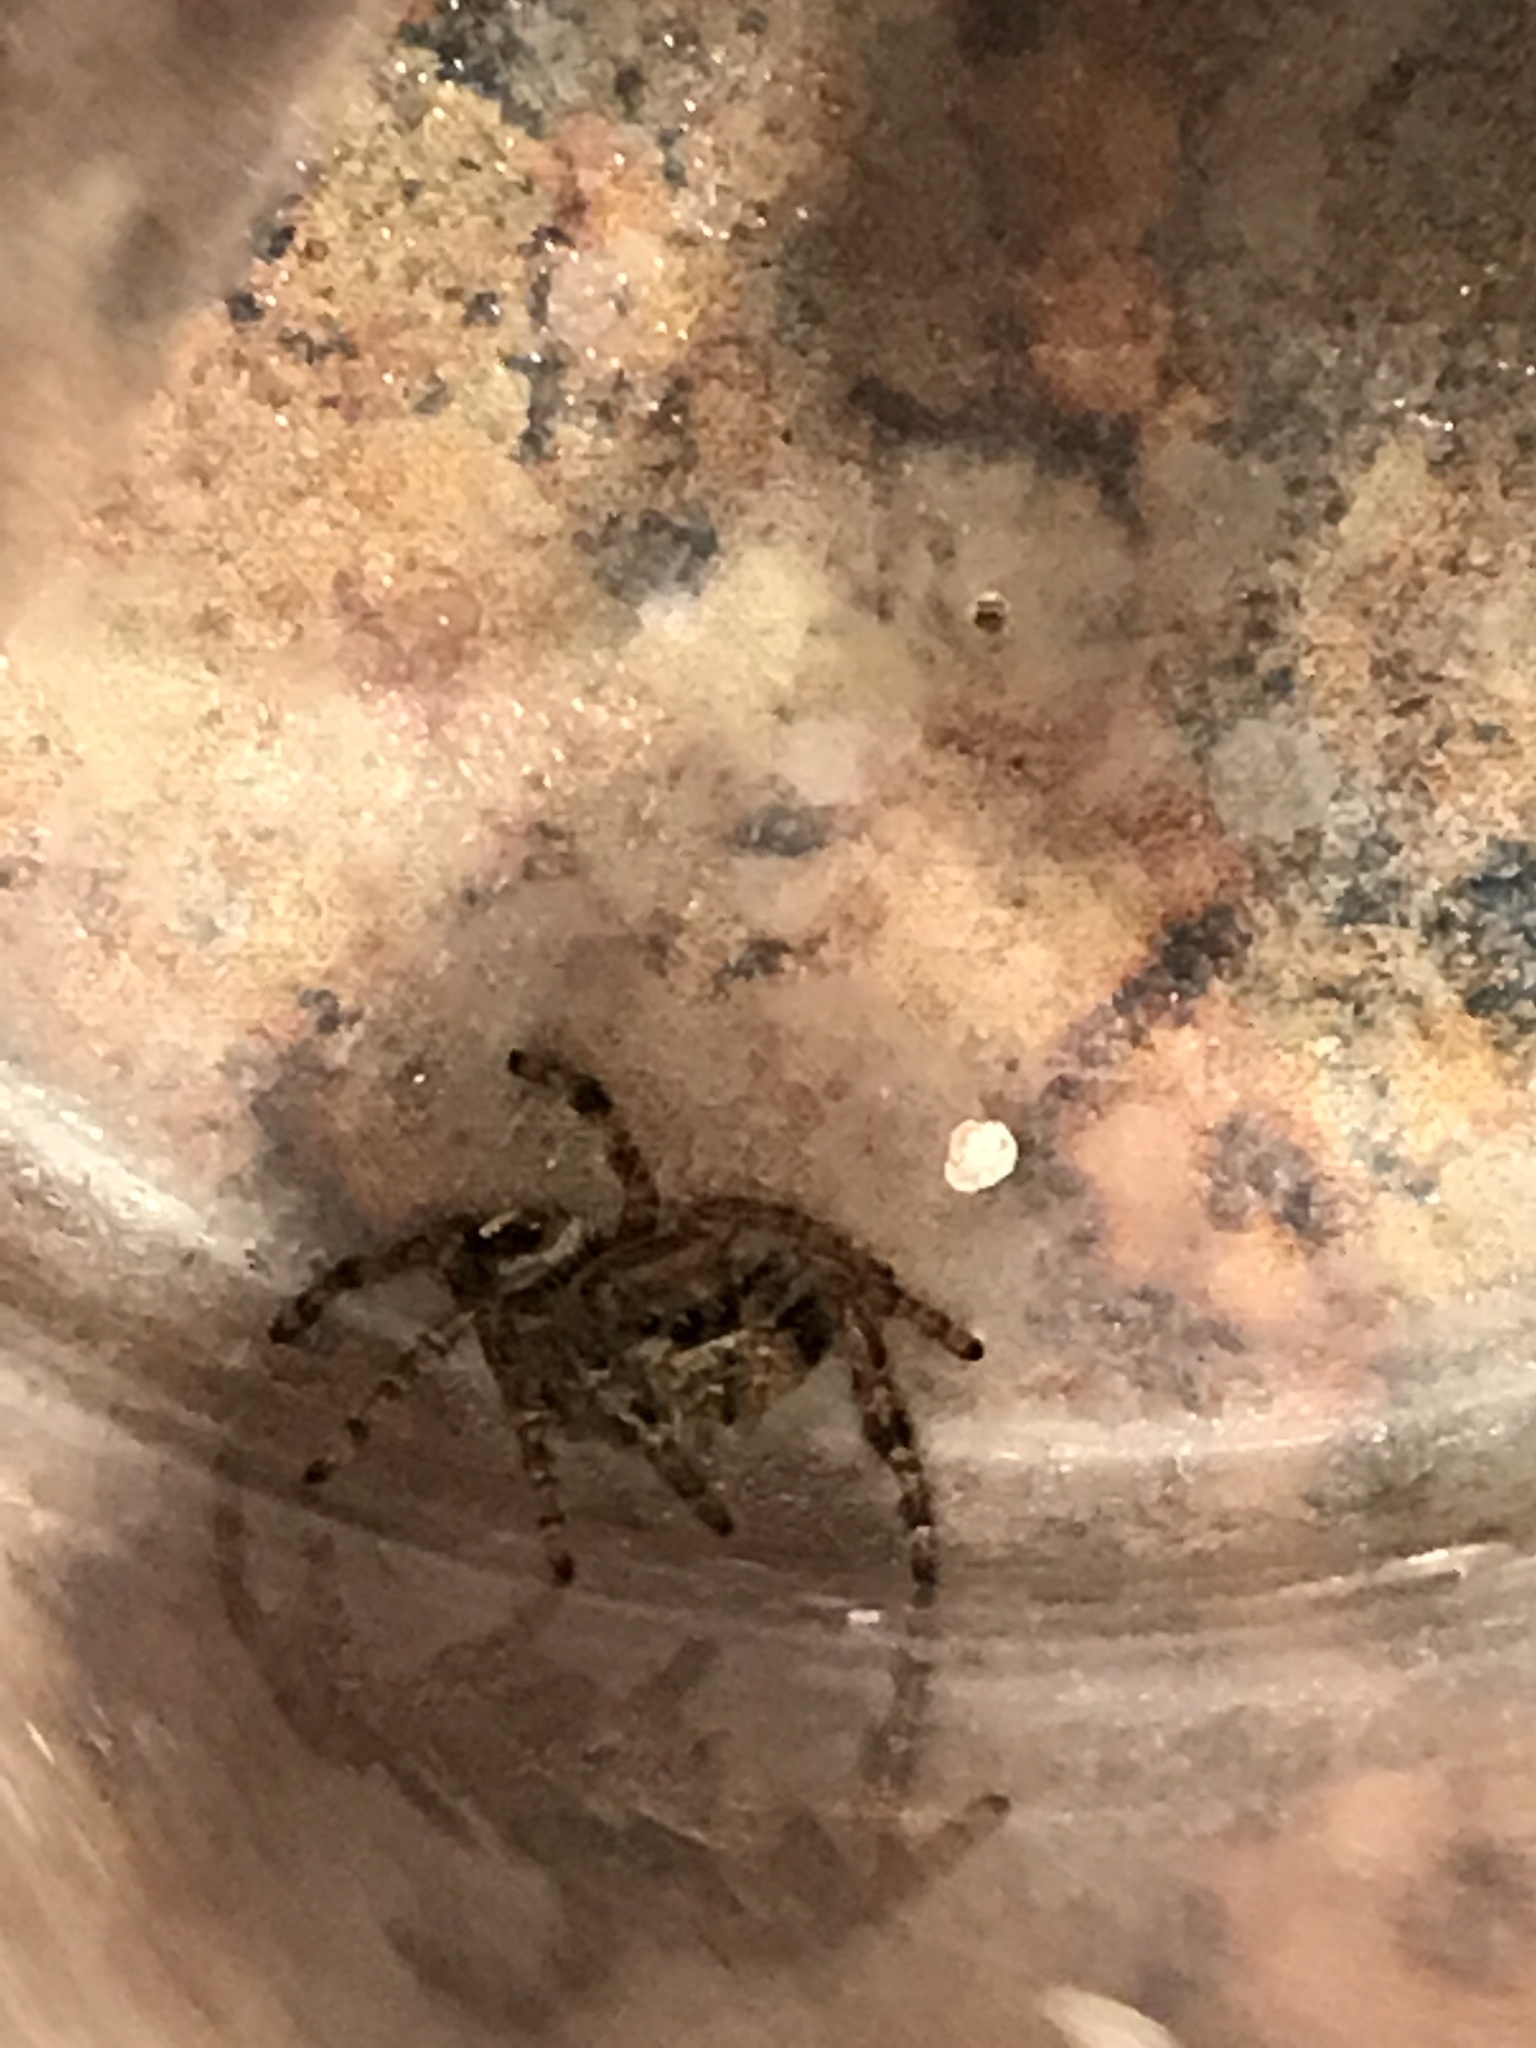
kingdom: Animalia
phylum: Arthropoda
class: Arachnida
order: Araneae
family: Salticidae
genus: Phidippus
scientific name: Phidippus audax
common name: Bold jumper
